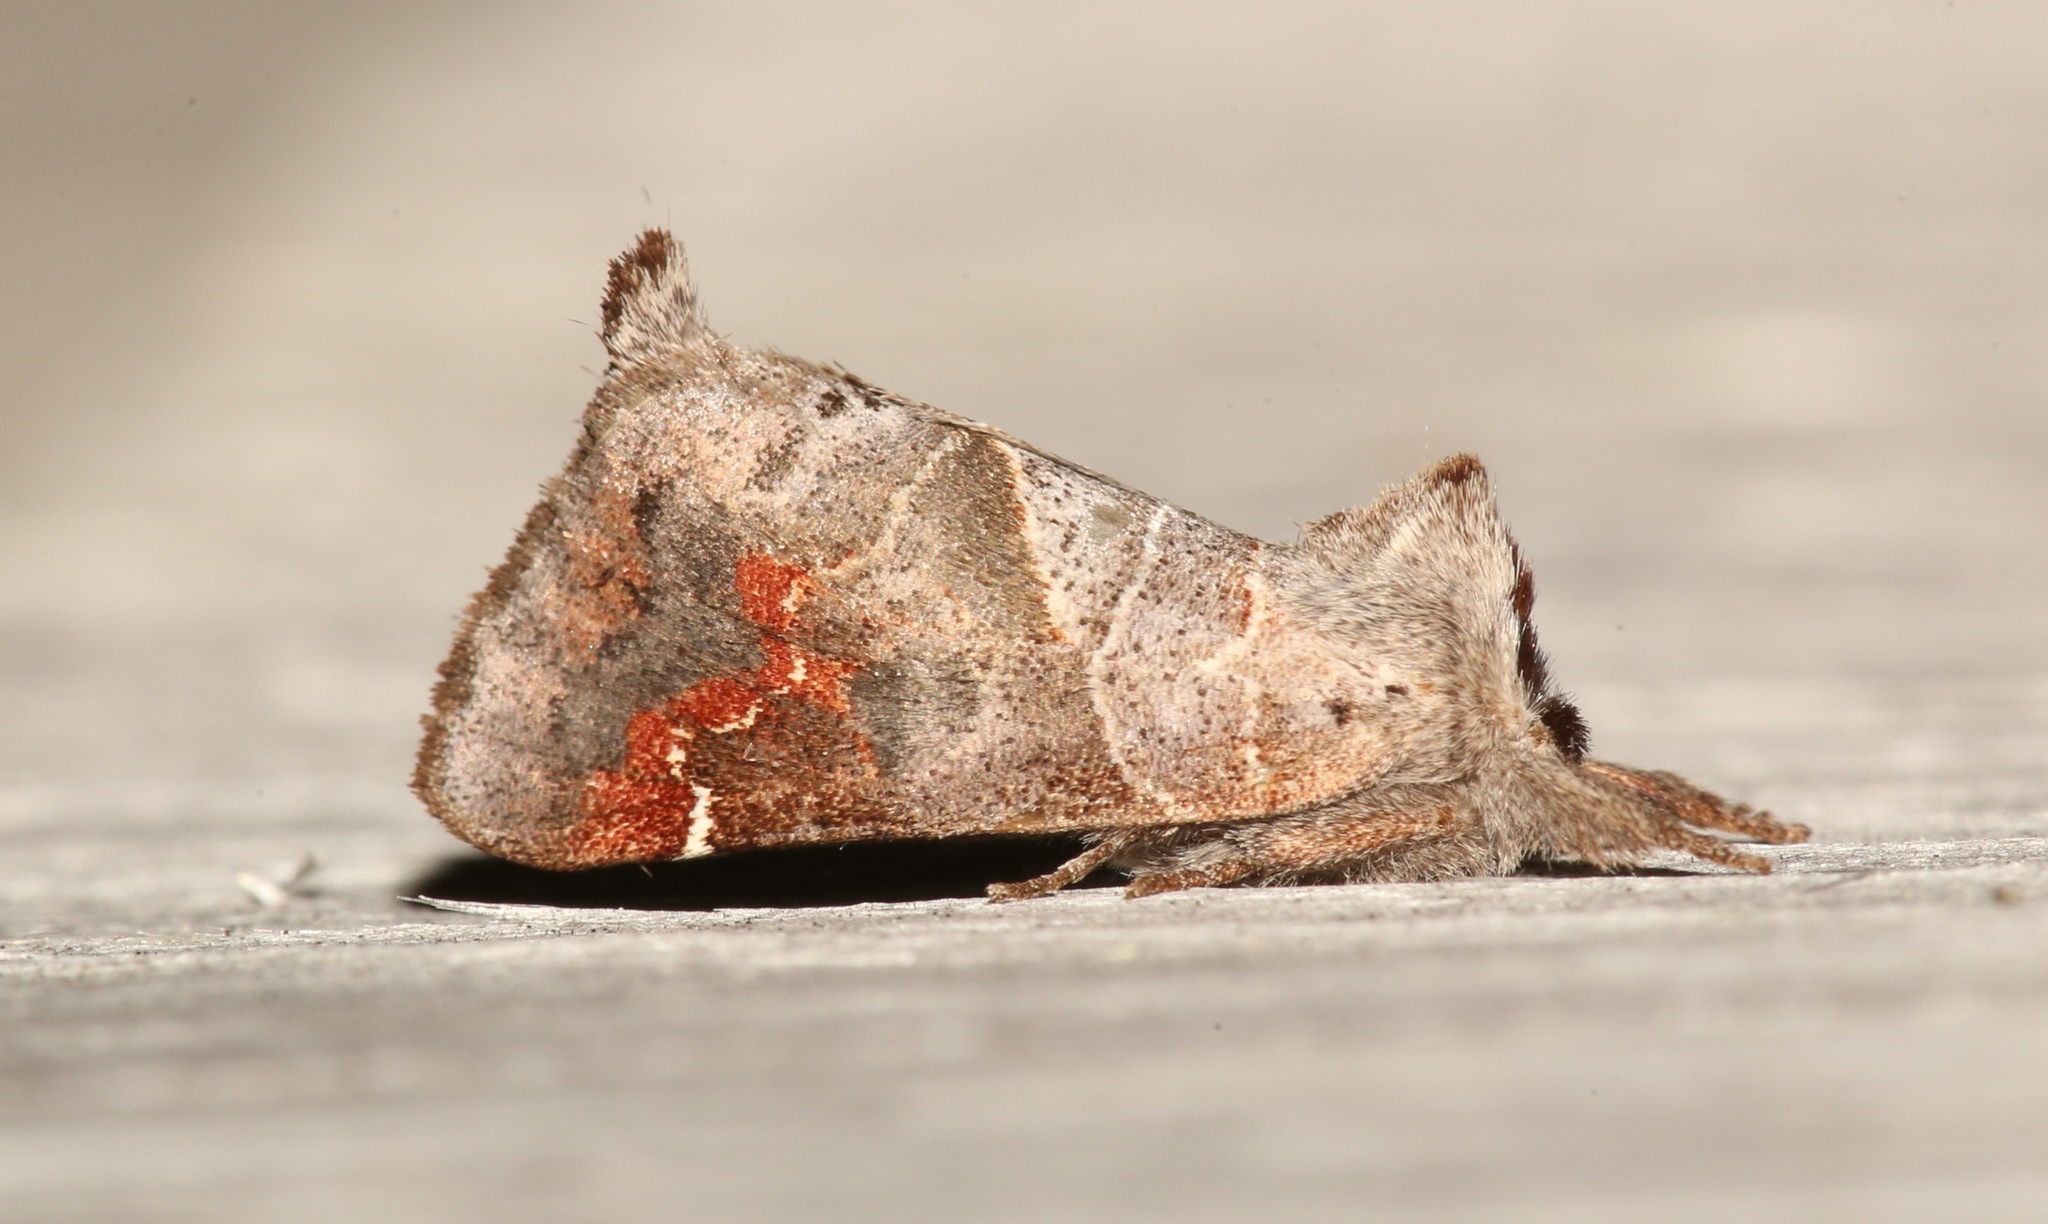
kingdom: Animalia
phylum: Arthropoda
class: Insecta
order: Lepidoptera
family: Notodontidae
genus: Clostera
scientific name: Clostera apicalis
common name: Apical prominent
